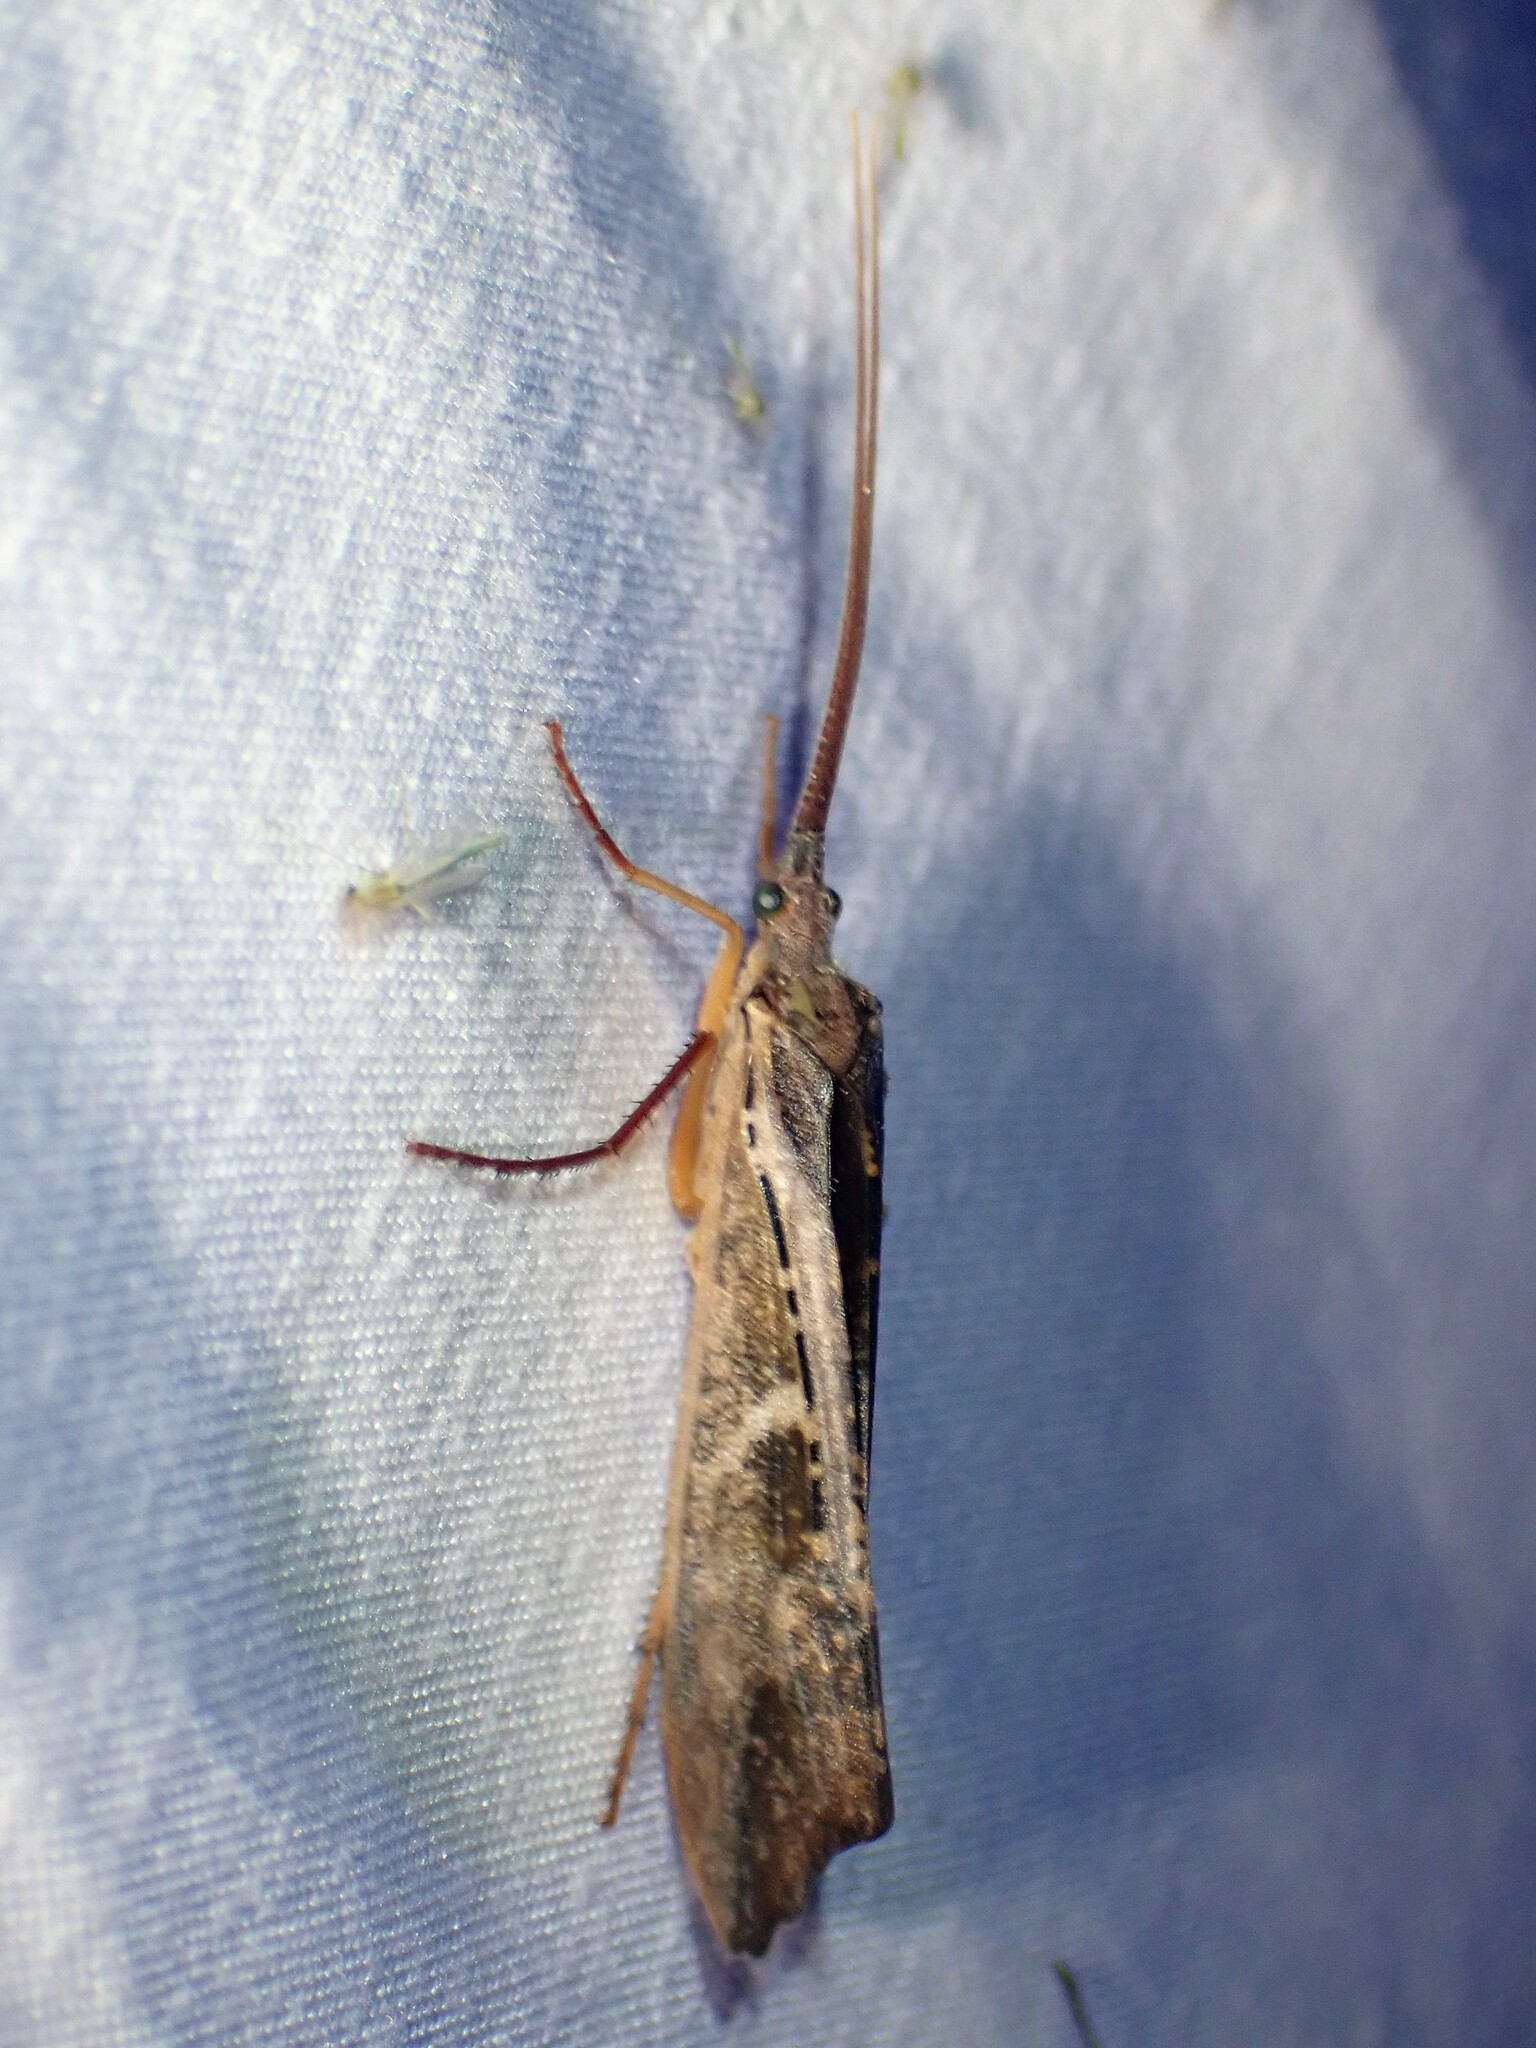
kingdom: Animalia
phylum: Arthropoda
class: Insecta
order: Trichoptera
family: Limnephilidae
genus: Nemotaulius
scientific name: Nemotaulius hostilis
